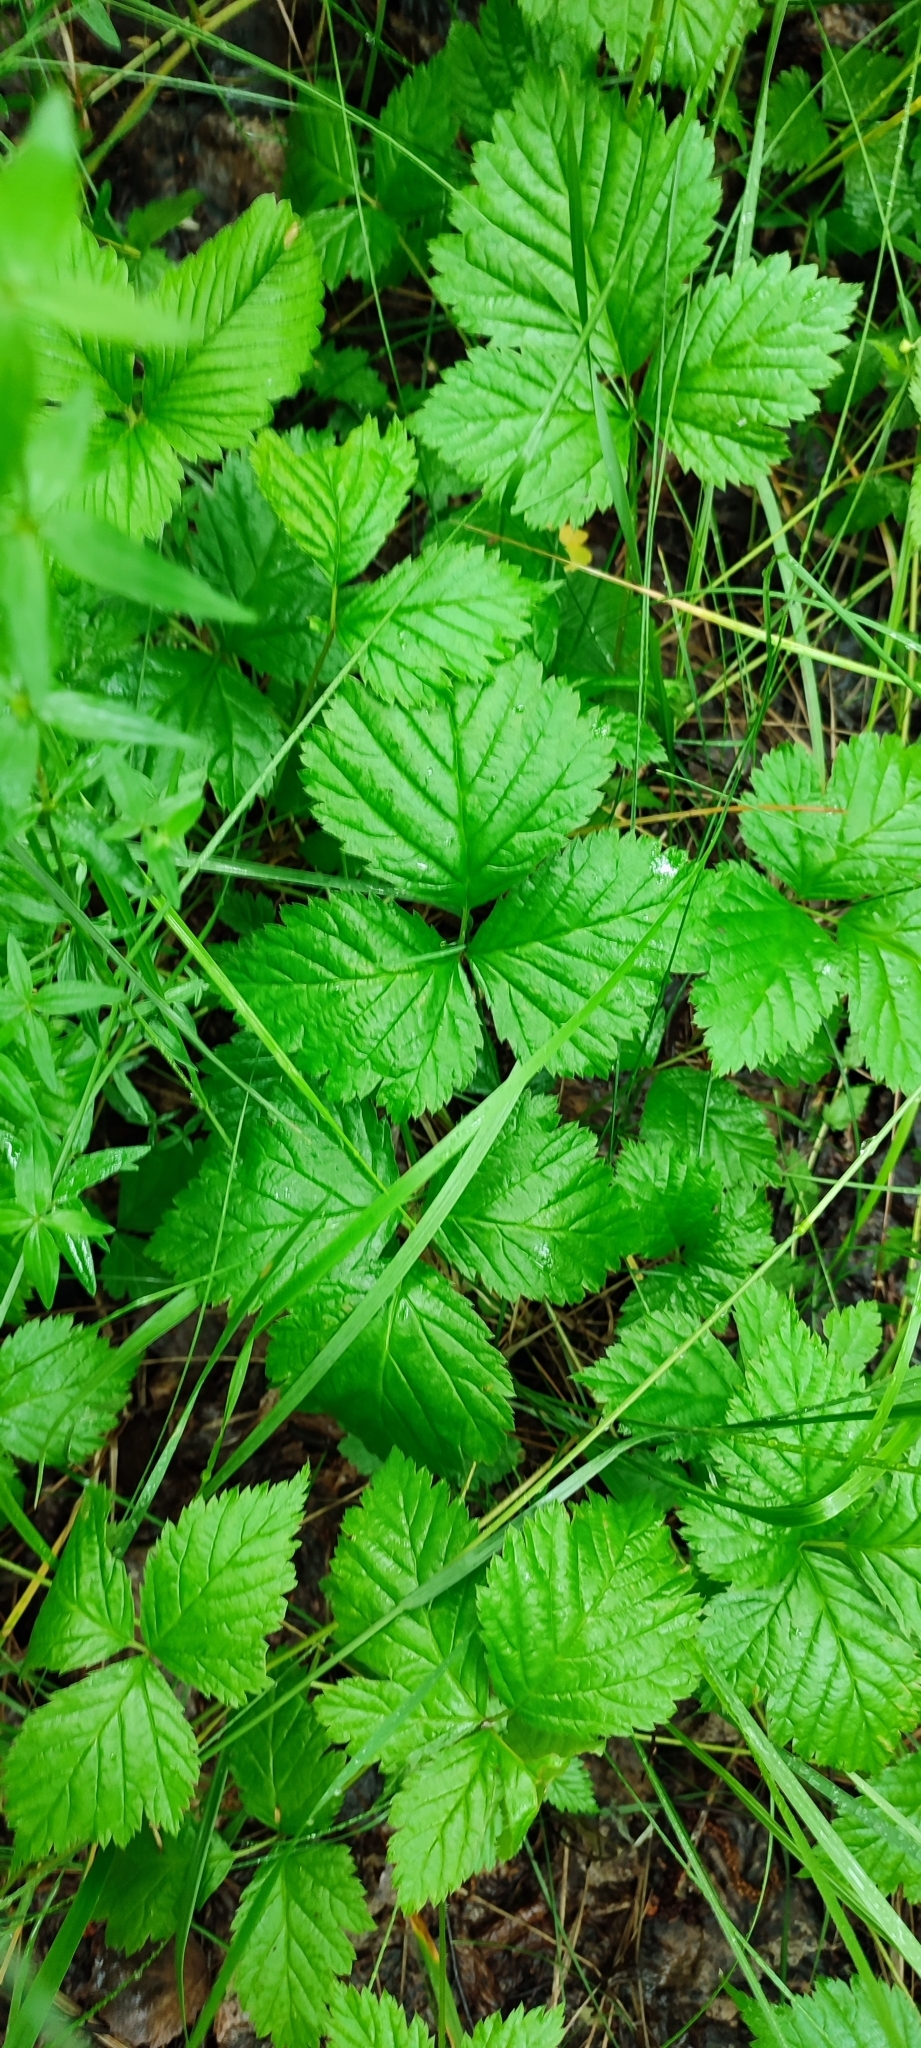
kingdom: Plantae
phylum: Tracheophyta
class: Magnoliopsida
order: Rosales
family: Rosaceae
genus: Rubus
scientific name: Rubus saxatilis
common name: Stone bramble
